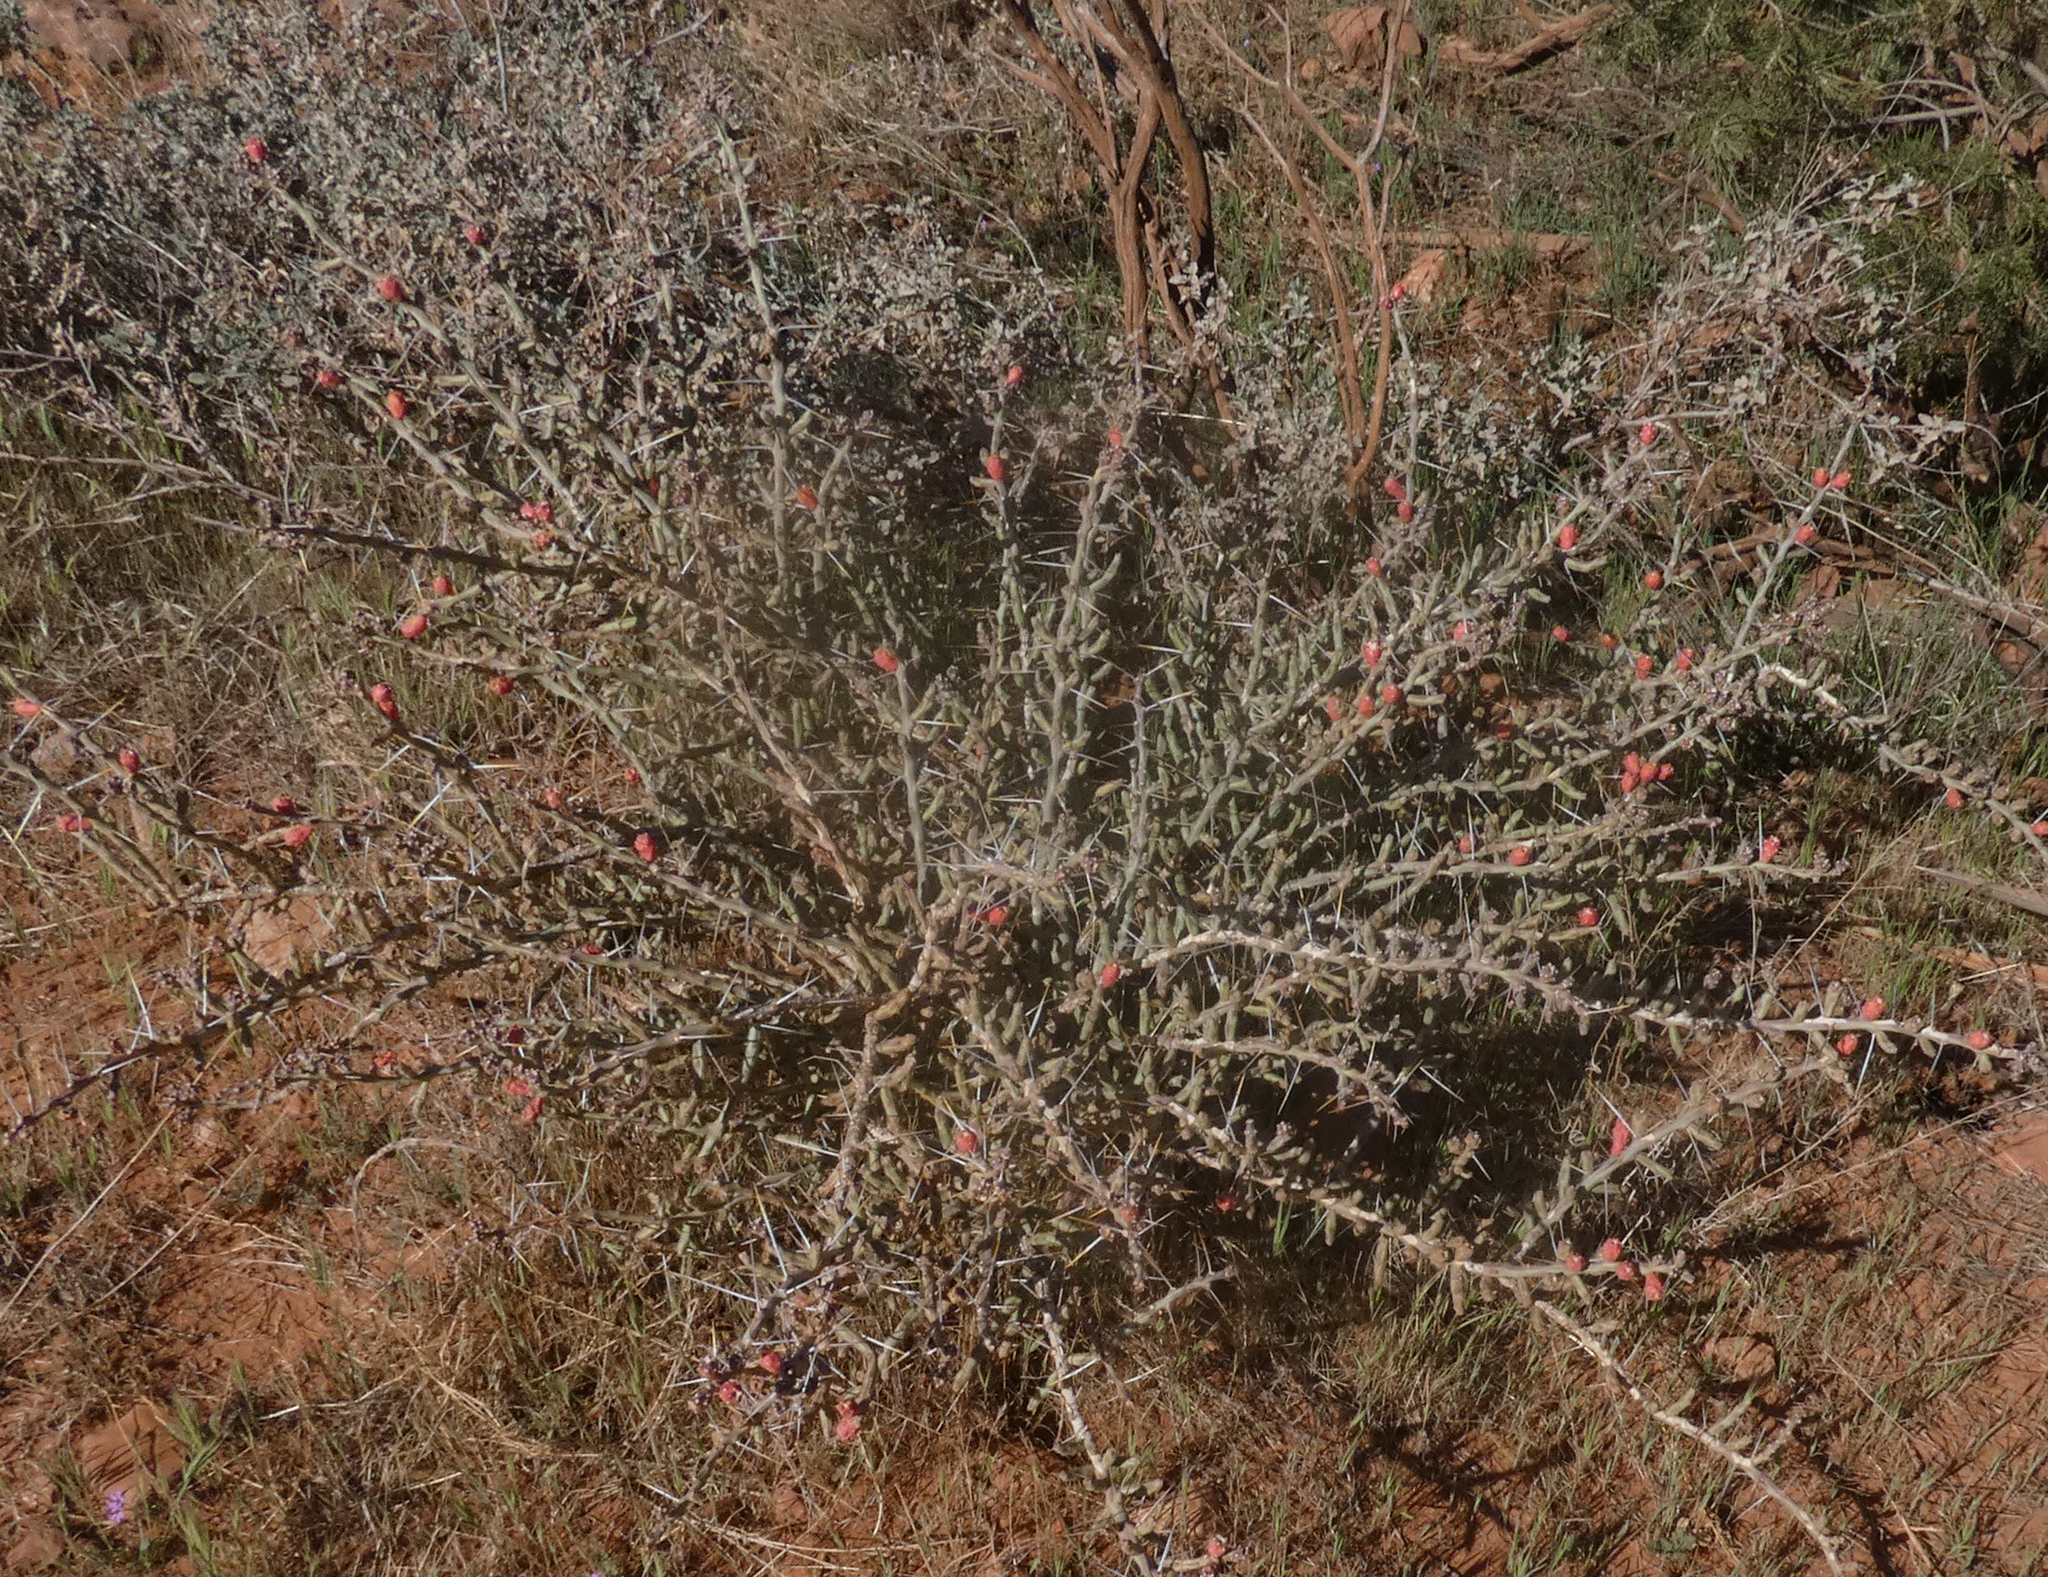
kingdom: Plantae
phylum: Tracheophyta
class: Magnoliopsida
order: Caryophyllales
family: Cactaceae
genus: Cylindropuntia
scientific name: Cylindropuntia leptocaulis
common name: Christmas cactus
